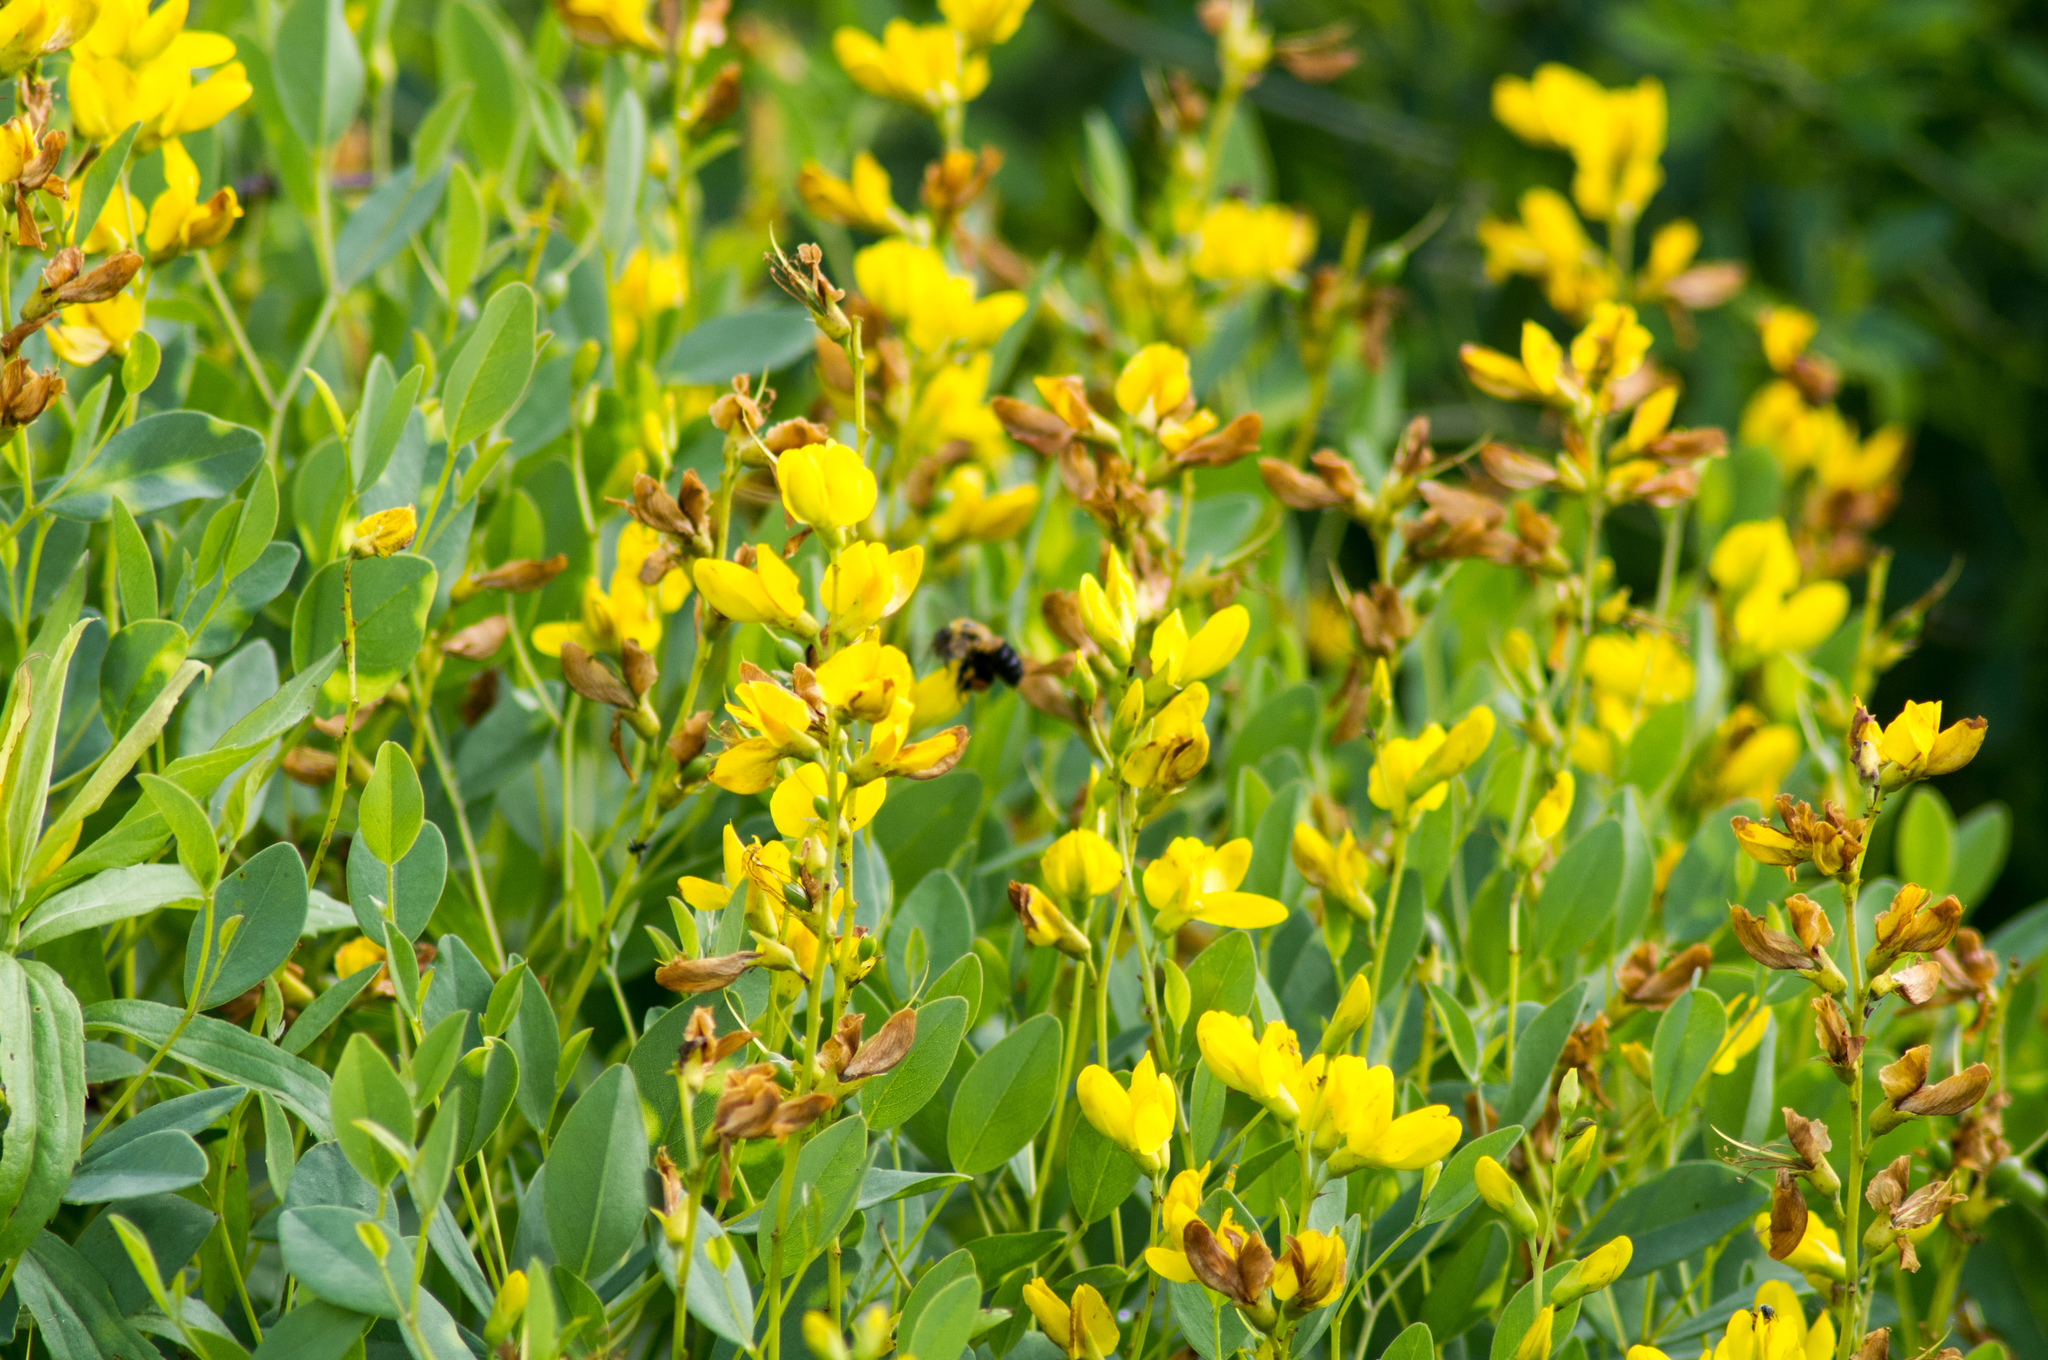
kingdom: Plantae
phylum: Tracheophyta
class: Magnoliopsida
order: Fabales
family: Fabaceae
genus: Baptisia
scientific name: Baptisia sphaerocarpa
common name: Round wild indigo
